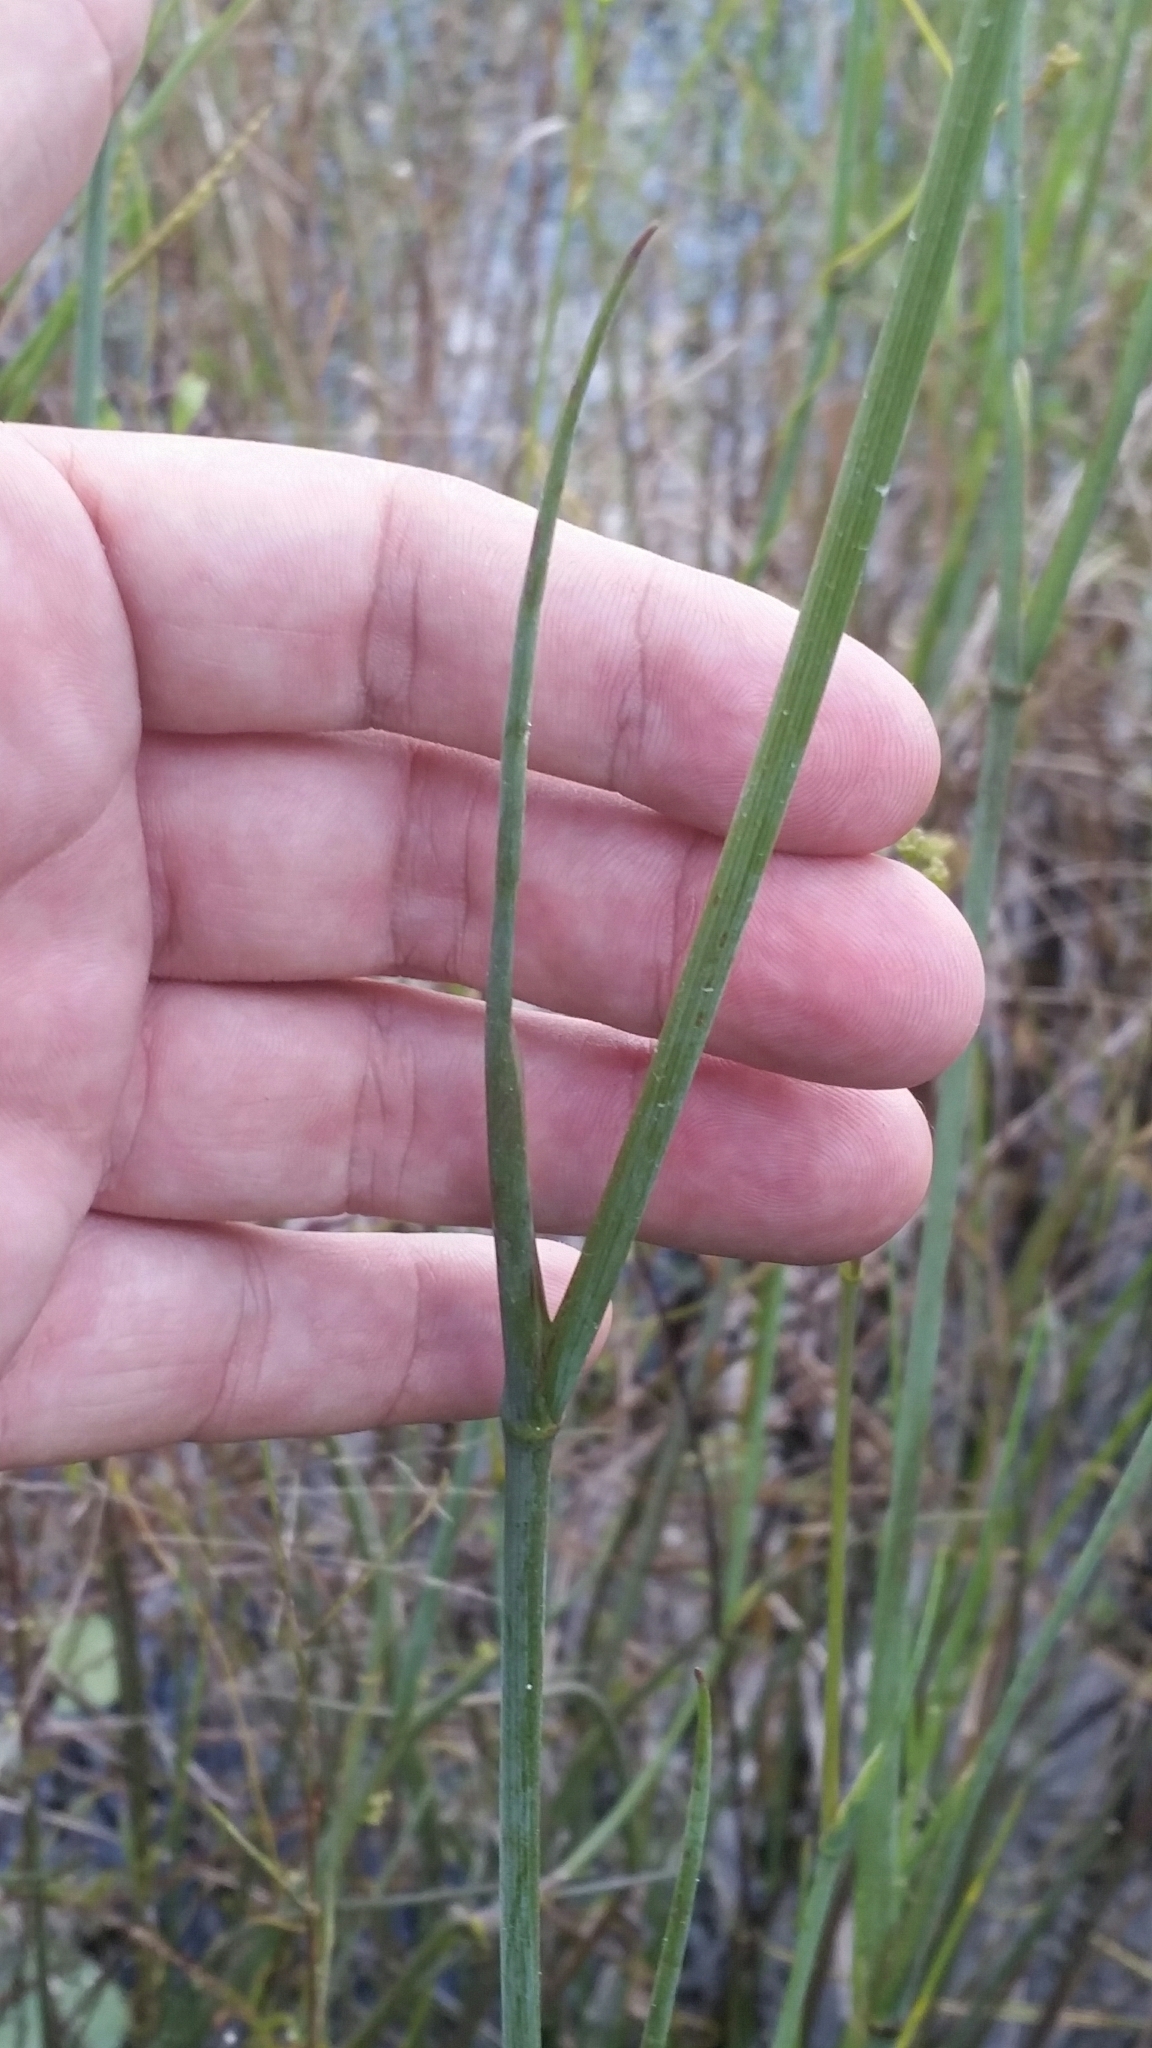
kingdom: Plantae
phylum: Tracheophyta
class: Magnoliopsida
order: Apiales
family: Apiaceae
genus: Tiedemannia
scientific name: Tiedemannia filiformis
